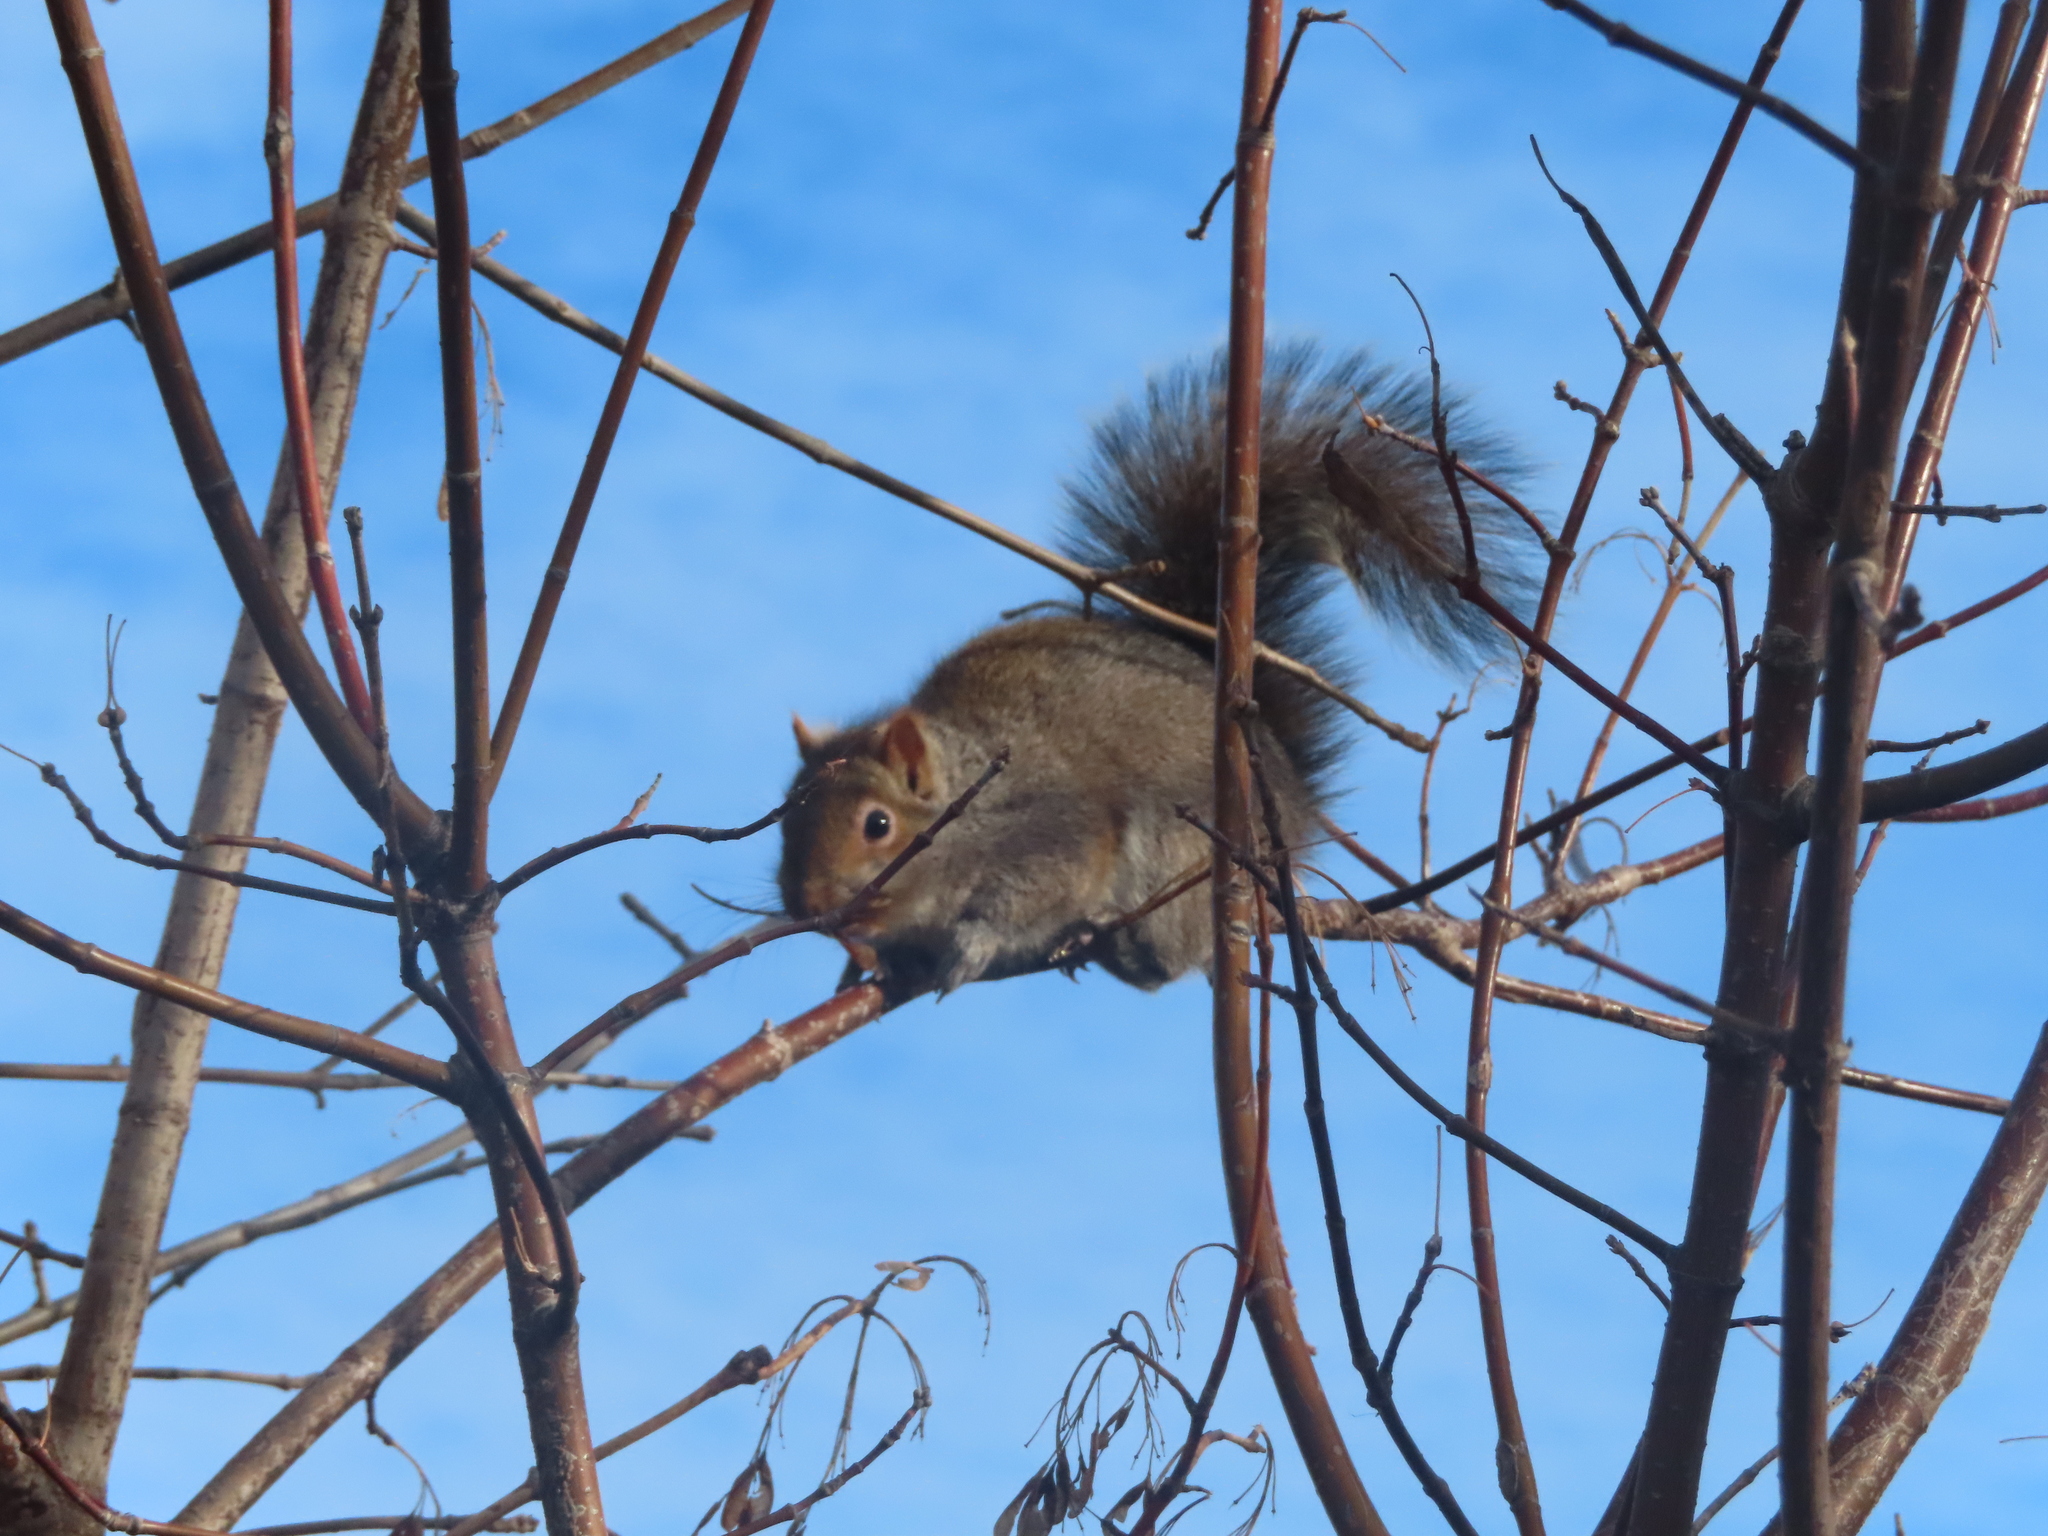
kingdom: Animalia
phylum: Chordata
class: Mammalia
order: Rodentia
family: Sciuridae
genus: Sciurus
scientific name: Sciurus carolinensis
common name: Eastern gray squirrel
